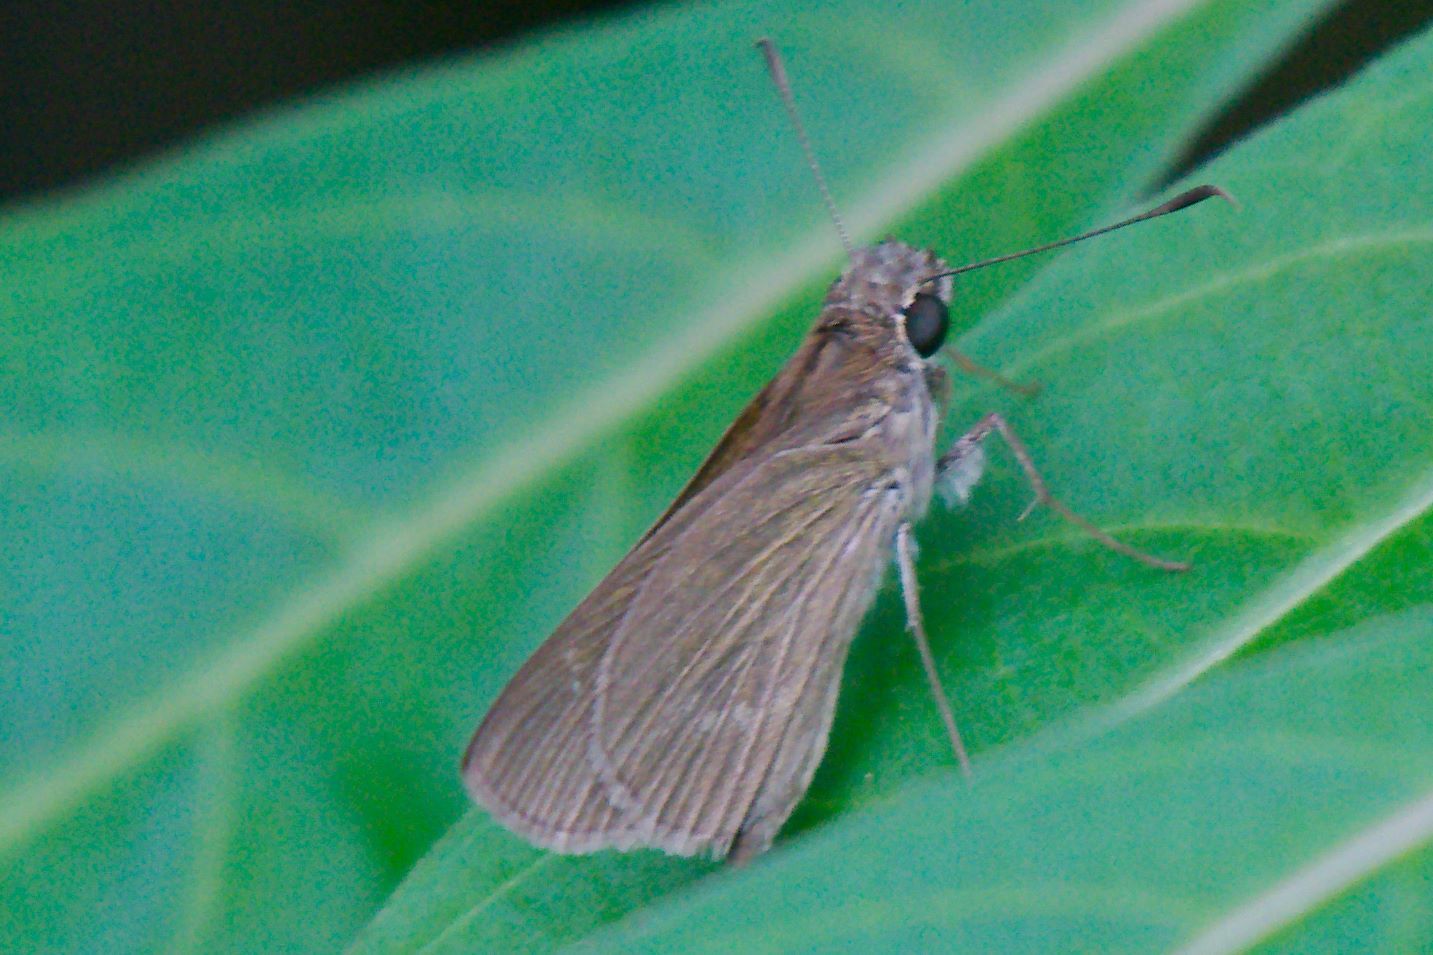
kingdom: Animalia
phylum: Arthropoda
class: Insecta
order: Lepidoptera
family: Hesperiidae
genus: Cymaenes
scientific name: Cymaenes tripunctus
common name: Dingy dotted skipper
